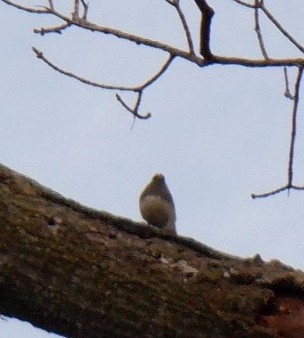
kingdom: Animalia
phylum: Chordata
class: Aves
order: Passeriformes
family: Passerellidae
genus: Junco
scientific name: Junco hyemalis
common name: Dark-eyed junco
